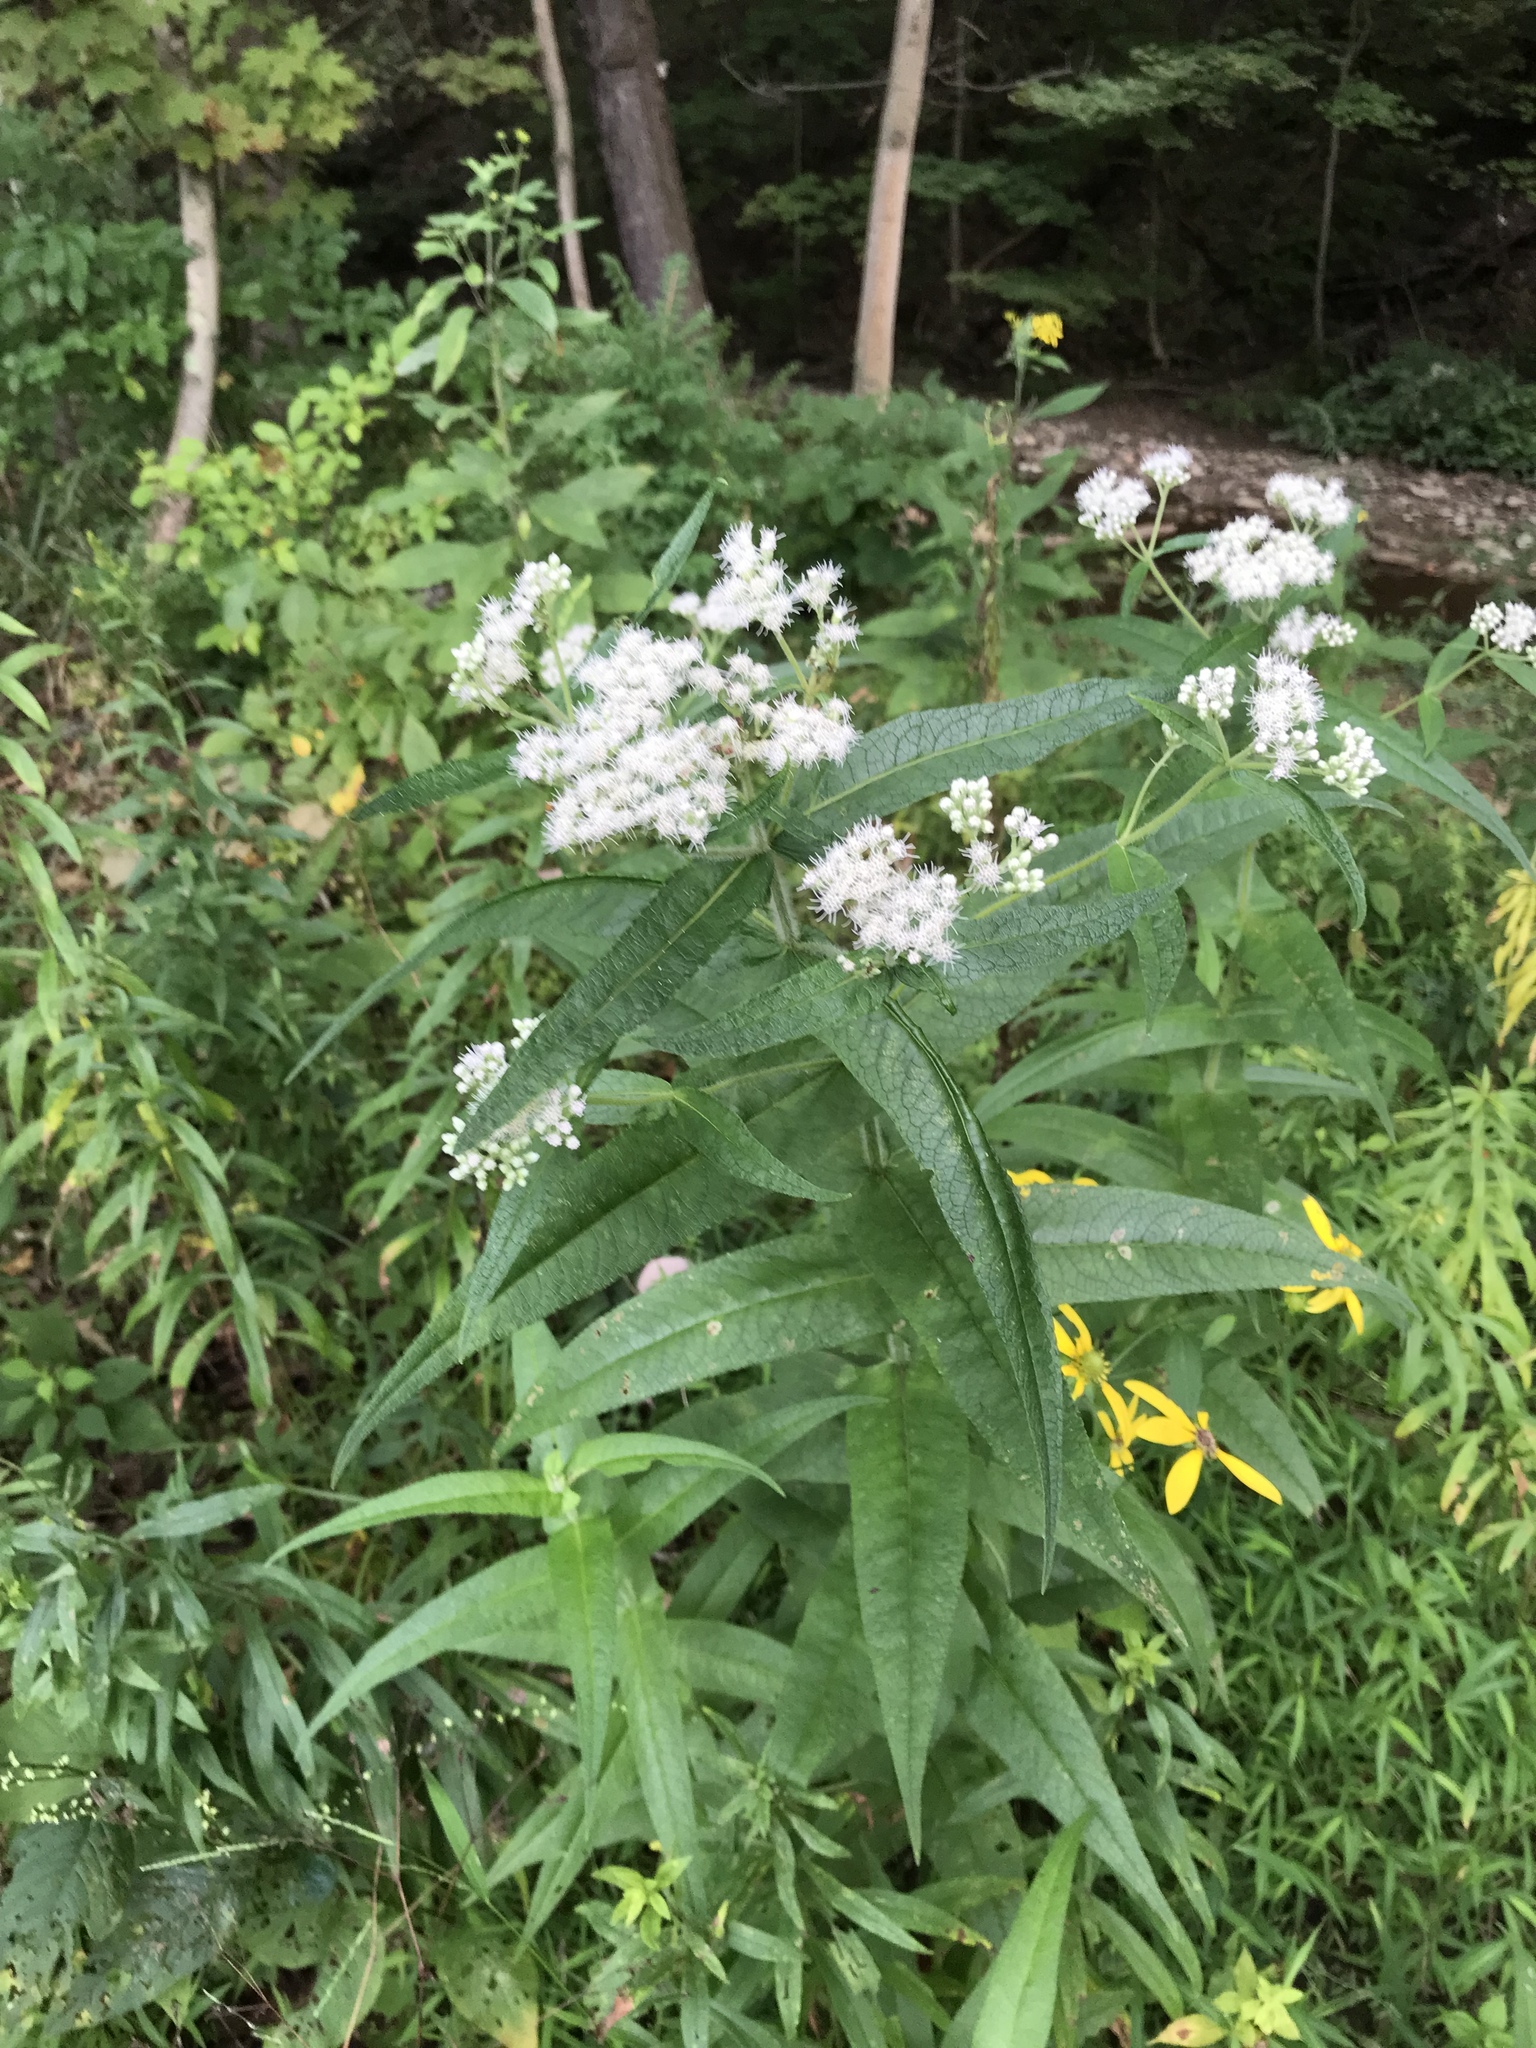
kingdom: Plantae
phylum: Tracheophyta
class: Magnoliopsida
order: Asterales
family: Asteraceae
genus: Eupatorium
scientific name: Eupatorium perfoliatum
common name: Boneset
